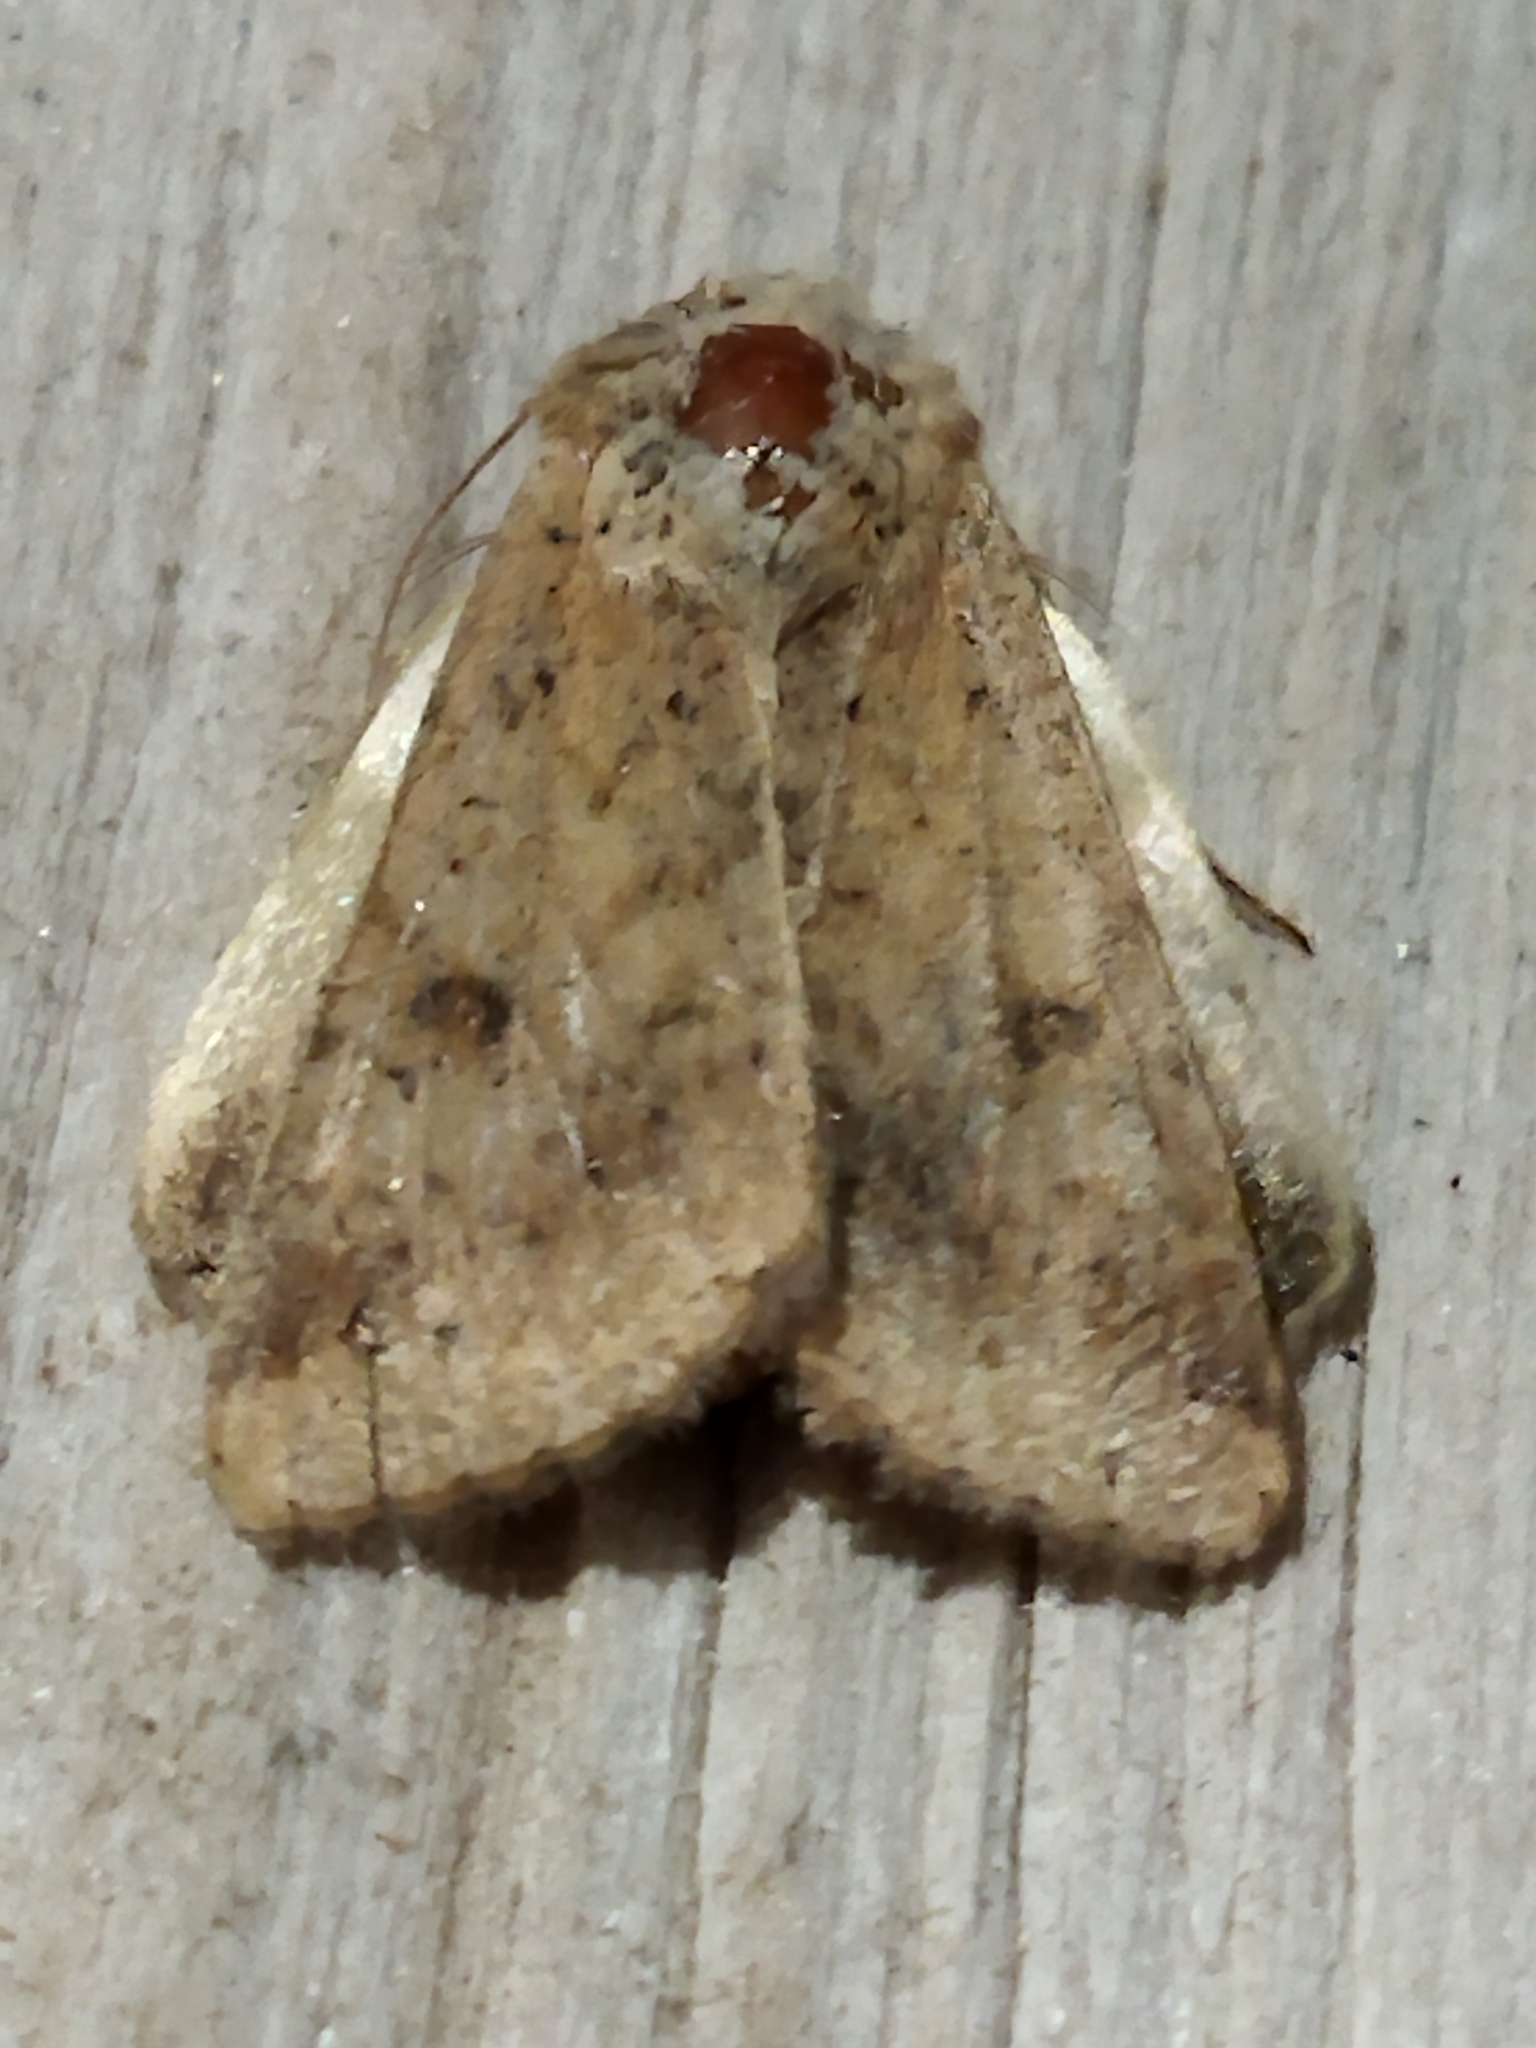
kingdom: Animalia
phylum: Arthropoda
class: Insecta
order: Lepidoptera
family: Noctuidae
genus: Helicoverpa
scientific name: Helicoverpa armigera
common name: Cotton bollworm
